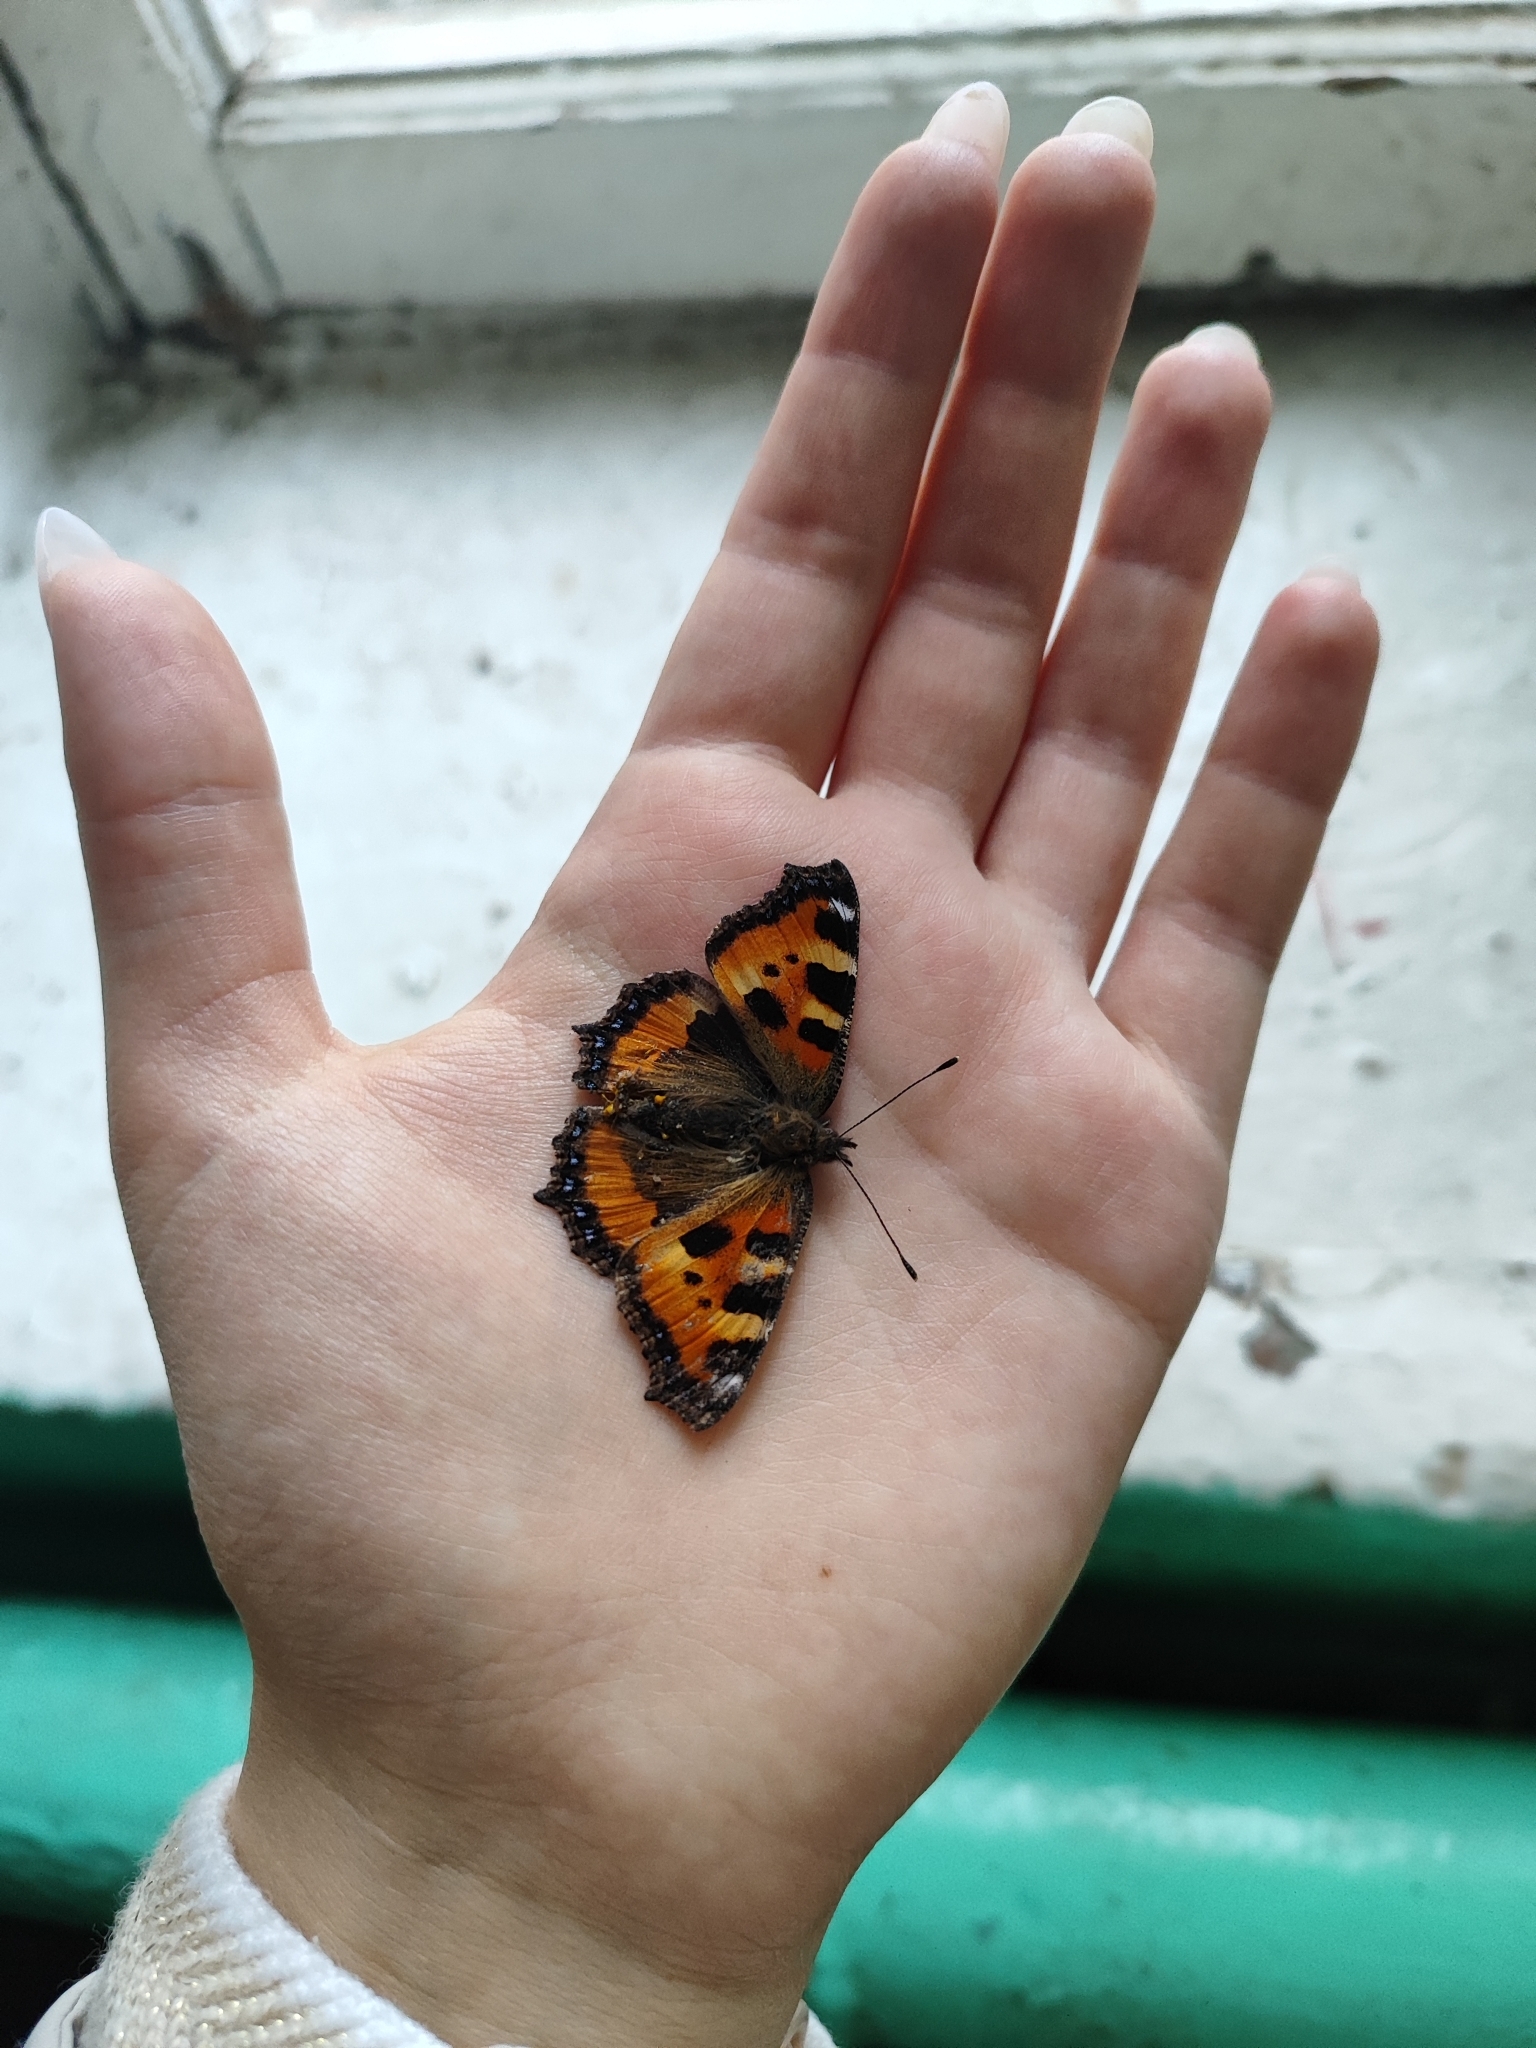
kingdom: Animalia
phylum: Arthropoda
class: Insecta
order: Lepidoptera
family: Nymphalidae
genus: Aglais
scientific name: Aglais urticae
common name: Small tortoiseshell
